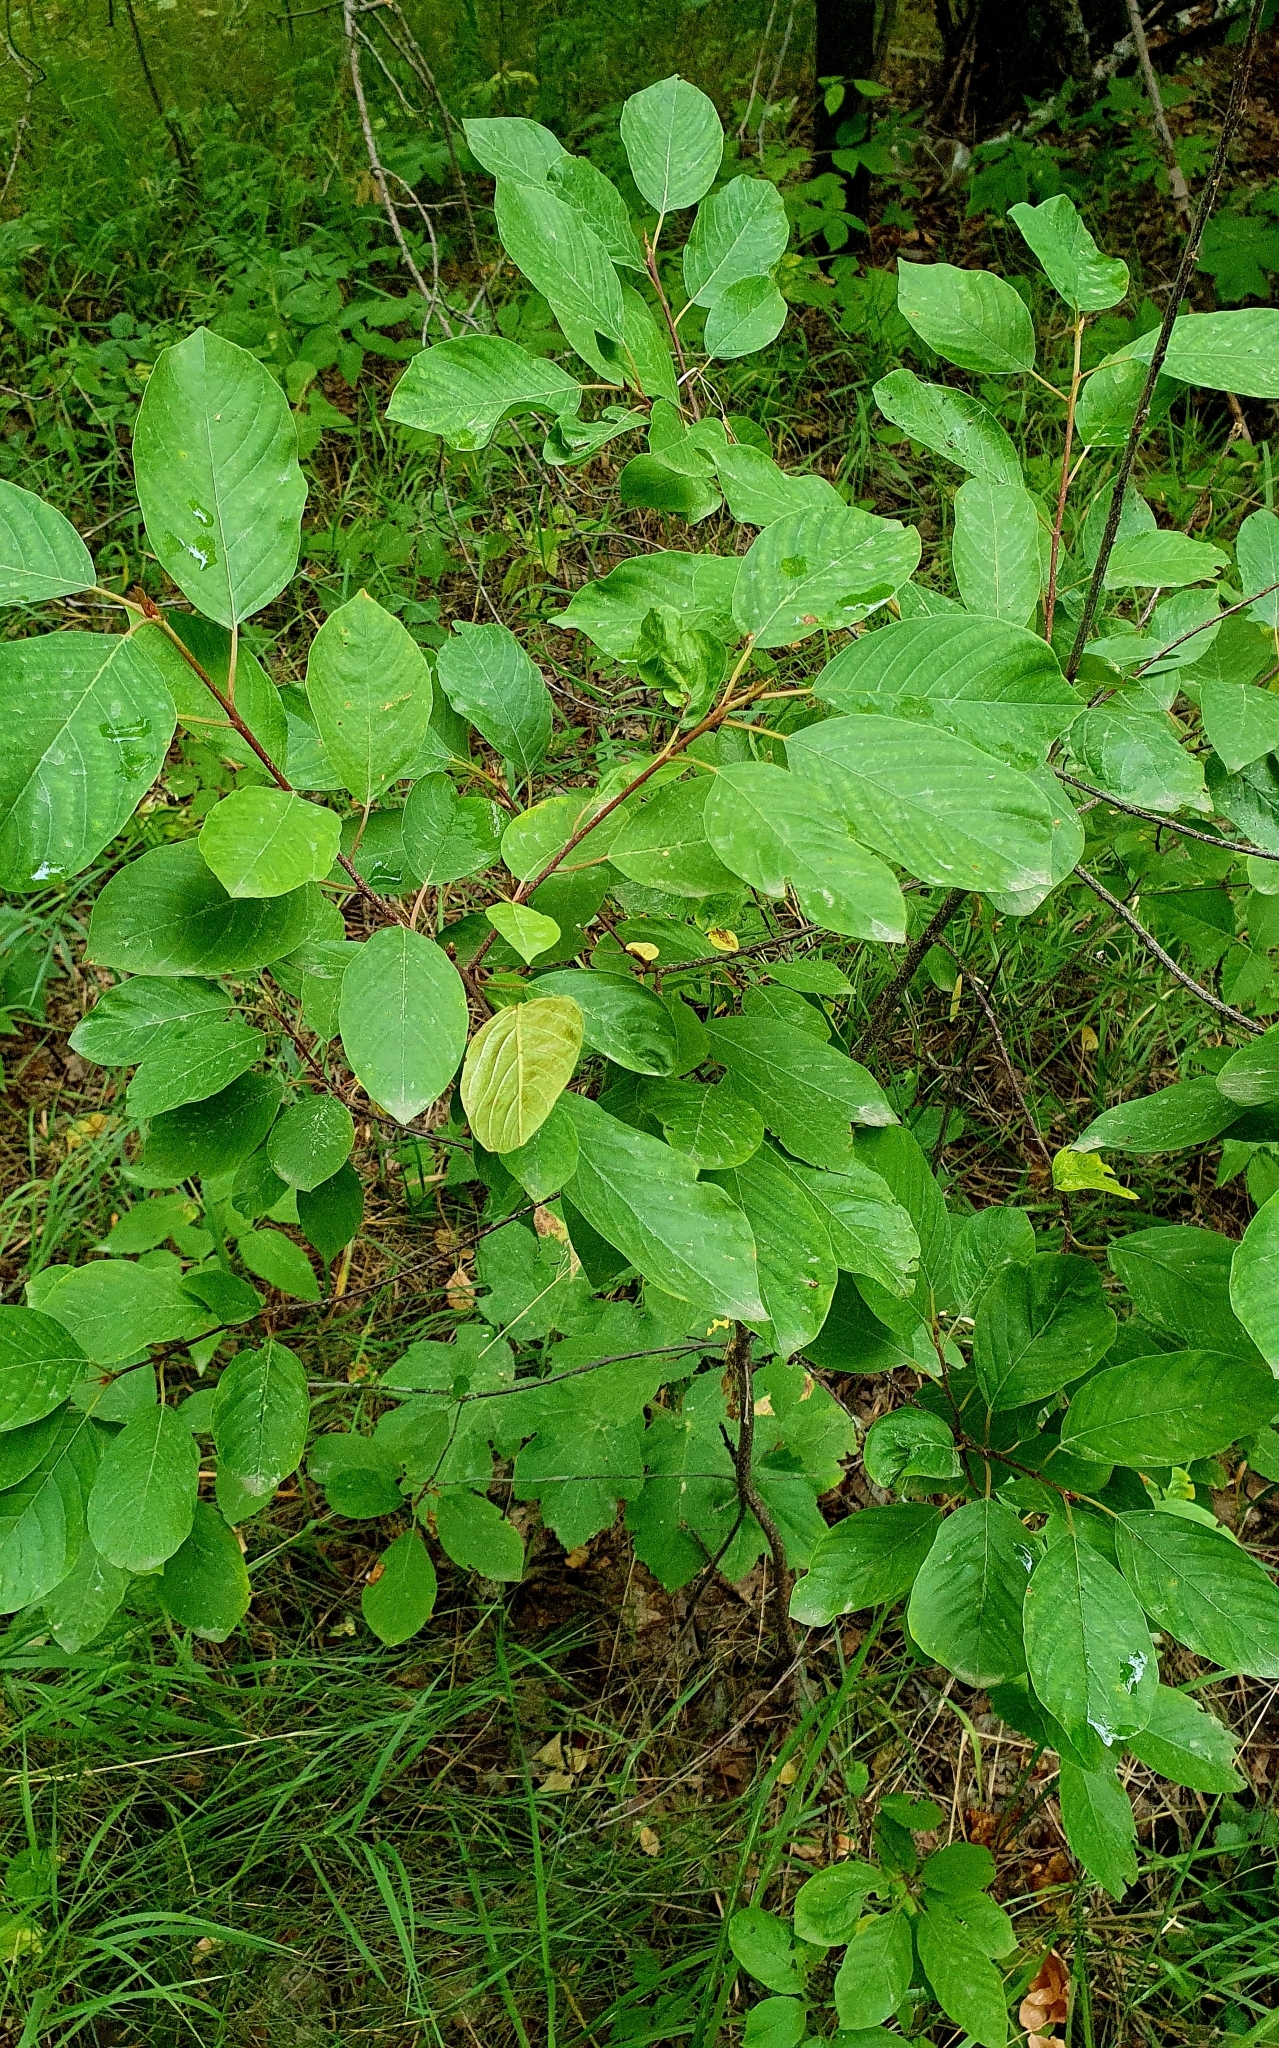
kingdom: Plantae
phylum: Tracheophyta
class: Magnoliopsida
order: Rosales
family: Rhamnaceae
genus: Frangula
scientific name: Frangula alnus
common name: Alder buckthorn
